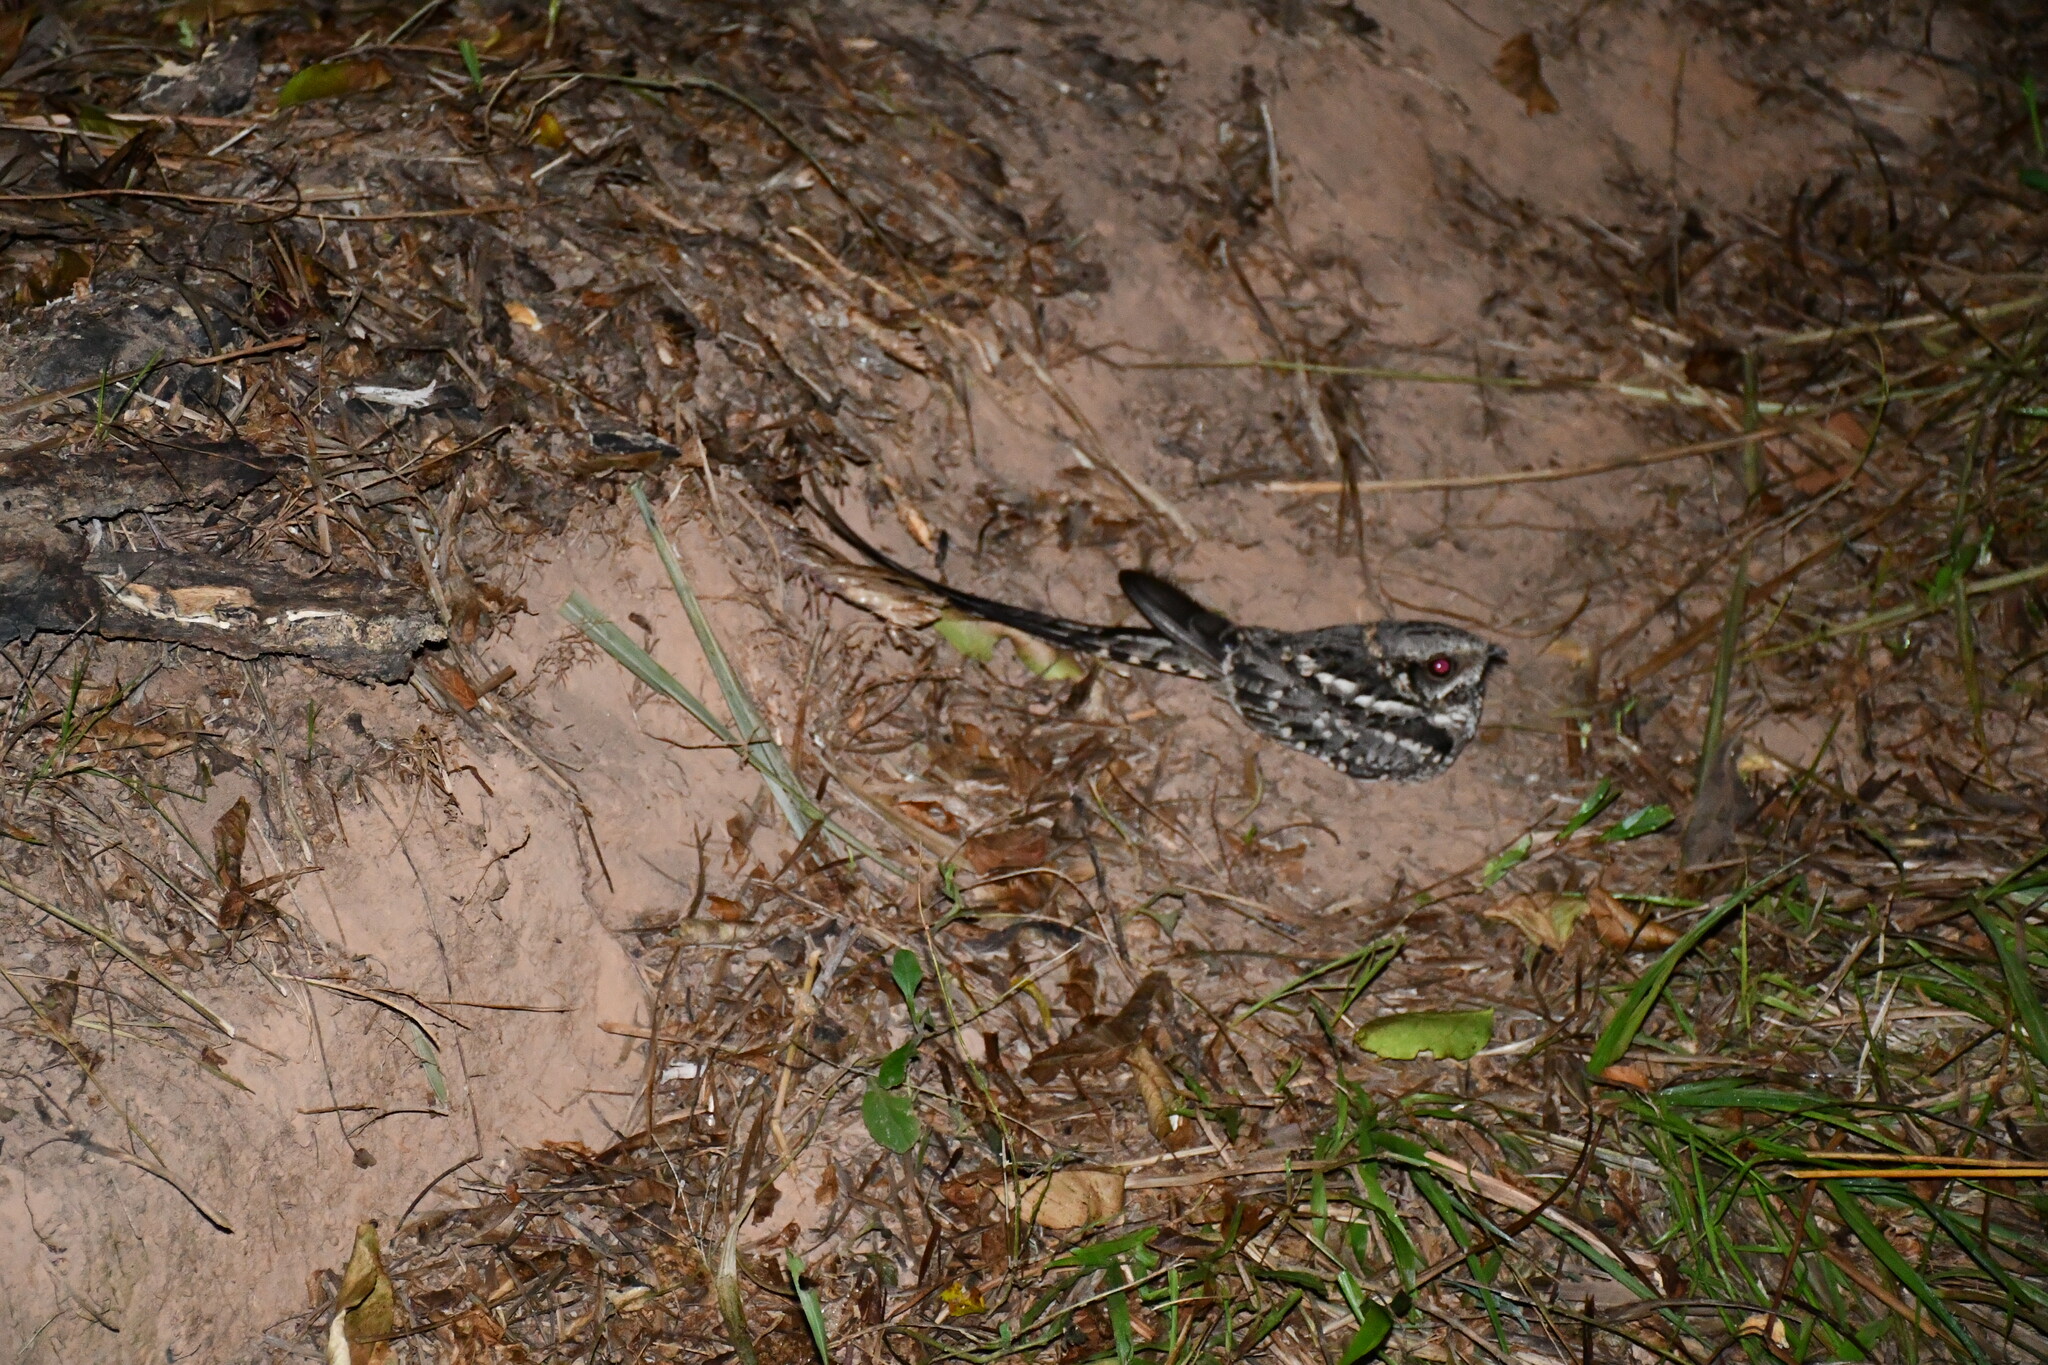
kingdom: Animalia
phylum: Chordata
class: Aves
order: Caprimulgiformes
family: Caprimulgidae
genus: Hydropsalis
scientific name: Hydropsalis torquata
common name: Scissor-tailed nightjar
